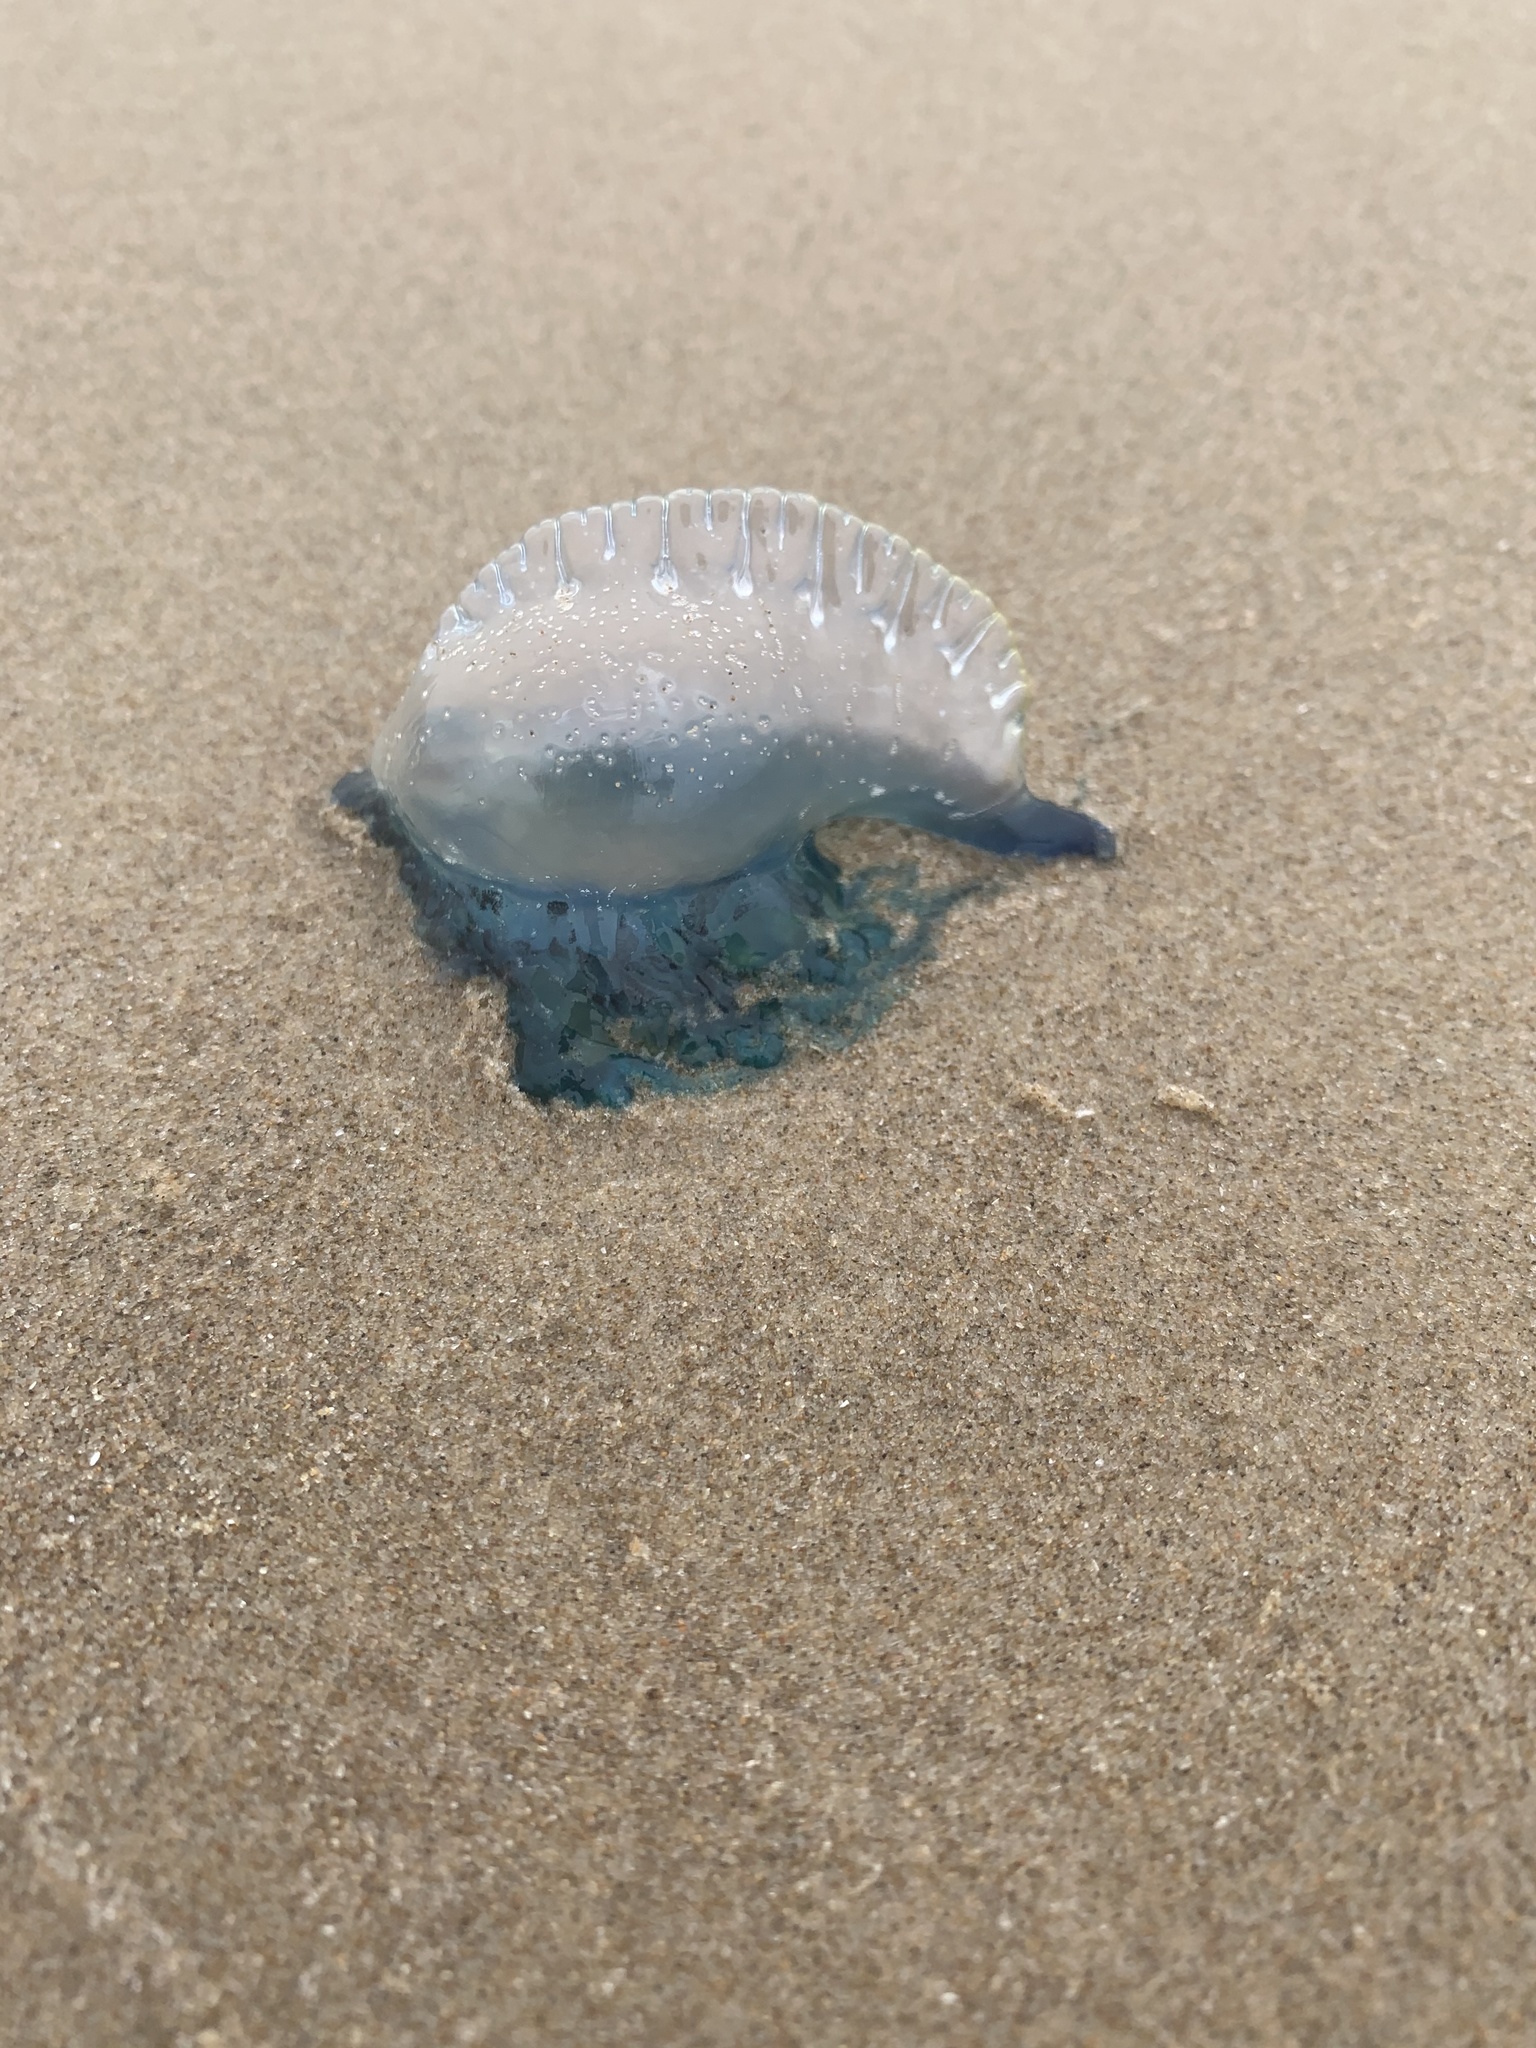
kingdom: Animalia
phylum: Cnidaria
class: Hydrozoa
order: Siphonophorae
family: Physaliidae
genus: Physalia
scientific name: Physalia physalis
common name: Portuguese man-of-war
